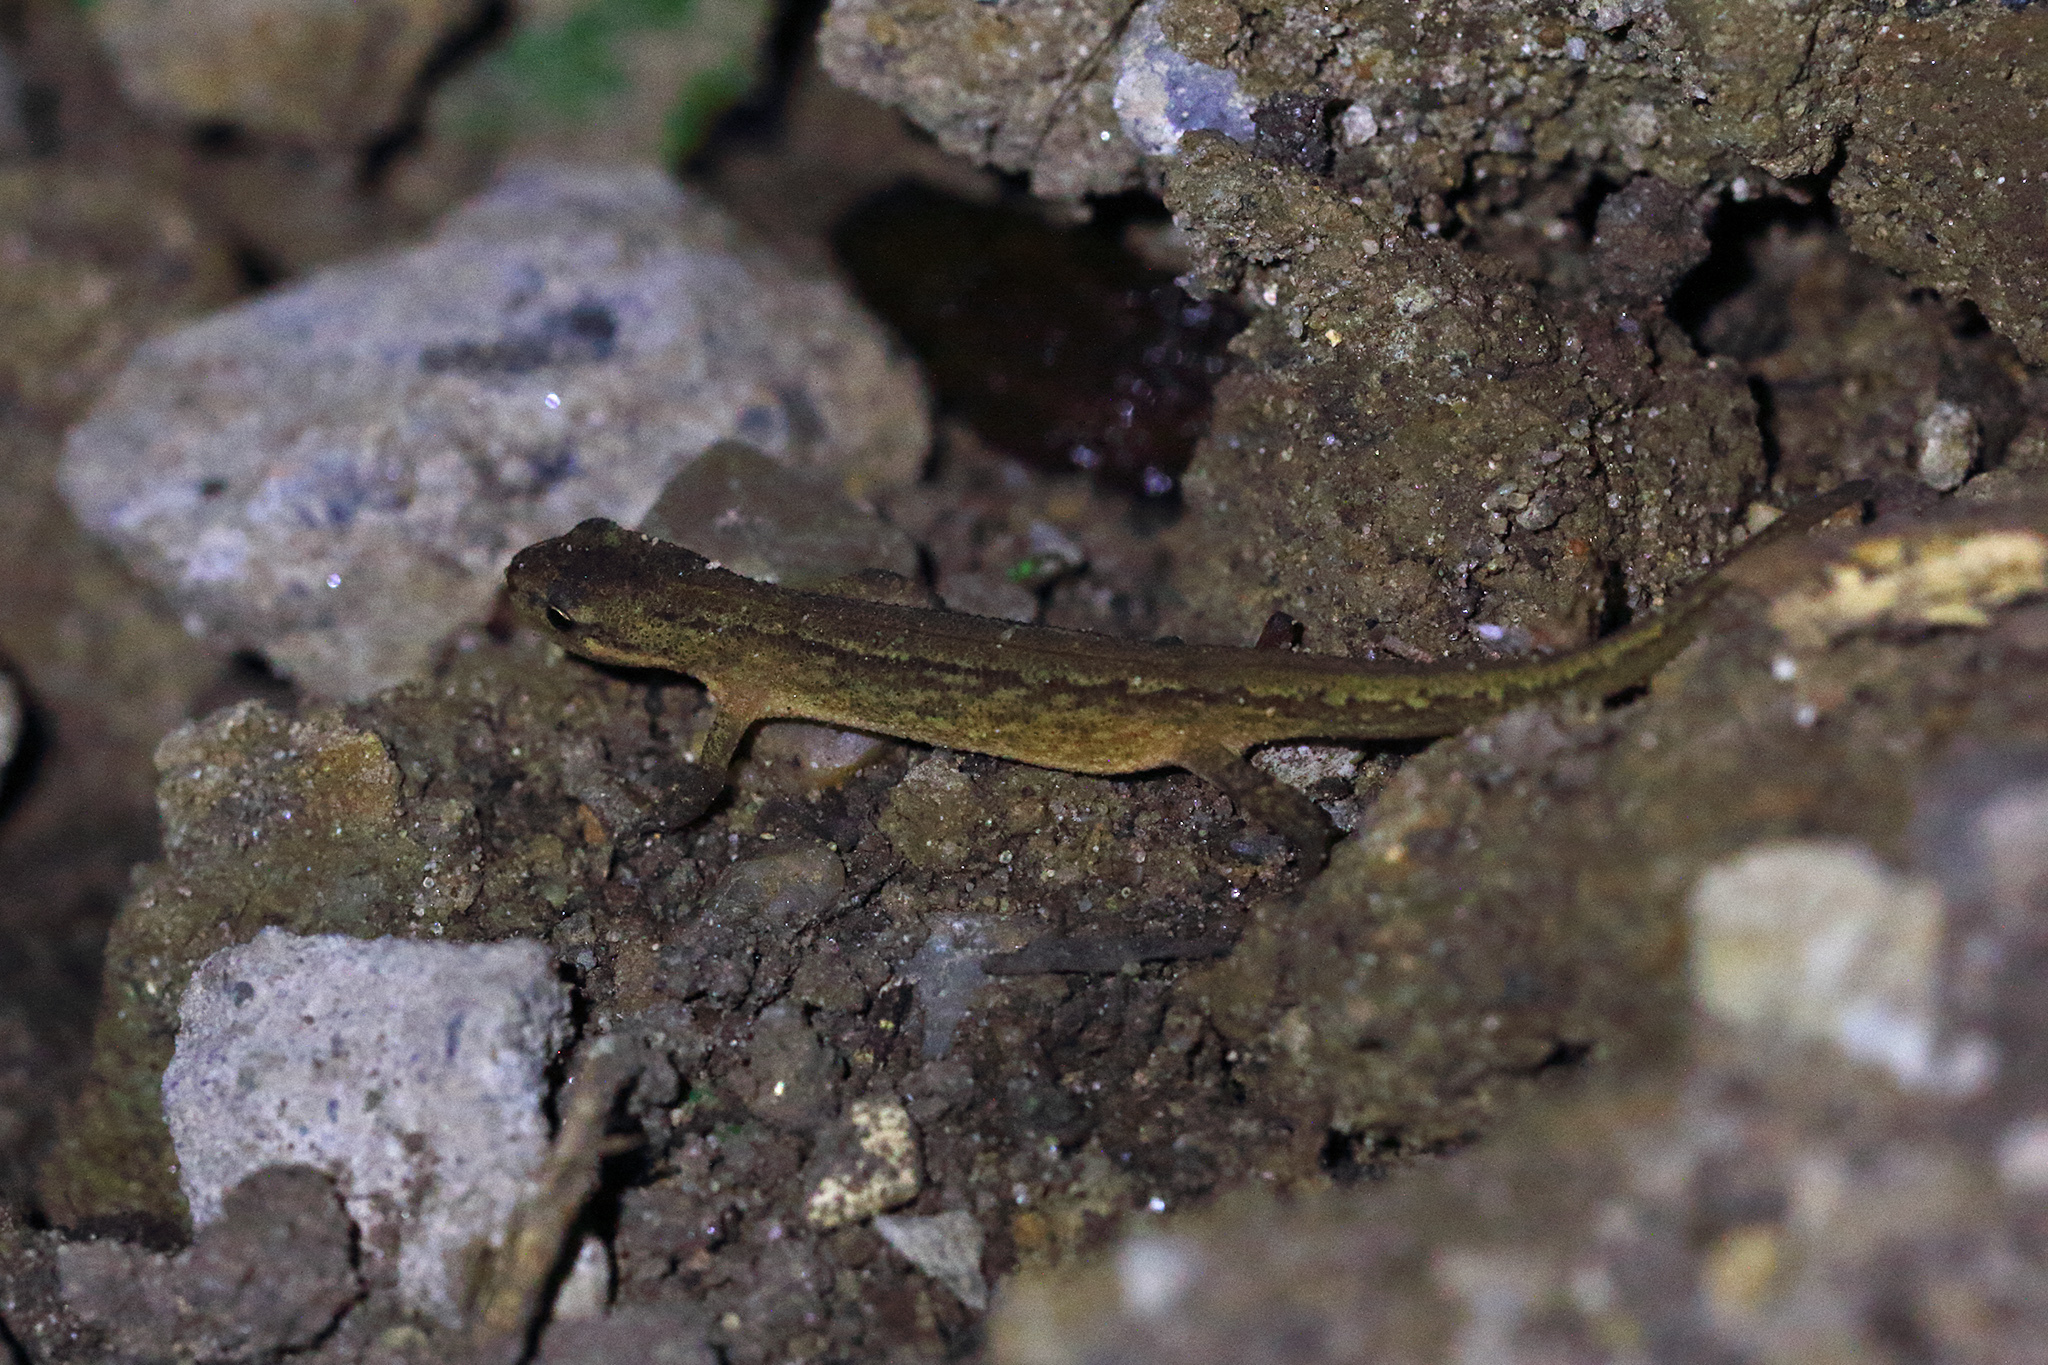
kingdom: Animalia
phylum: Chordata
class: Amphibia
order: Caudata
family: Salamandridae
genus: Lissotriton
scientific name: Lissotriton vulgaris
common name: Smooth newt
